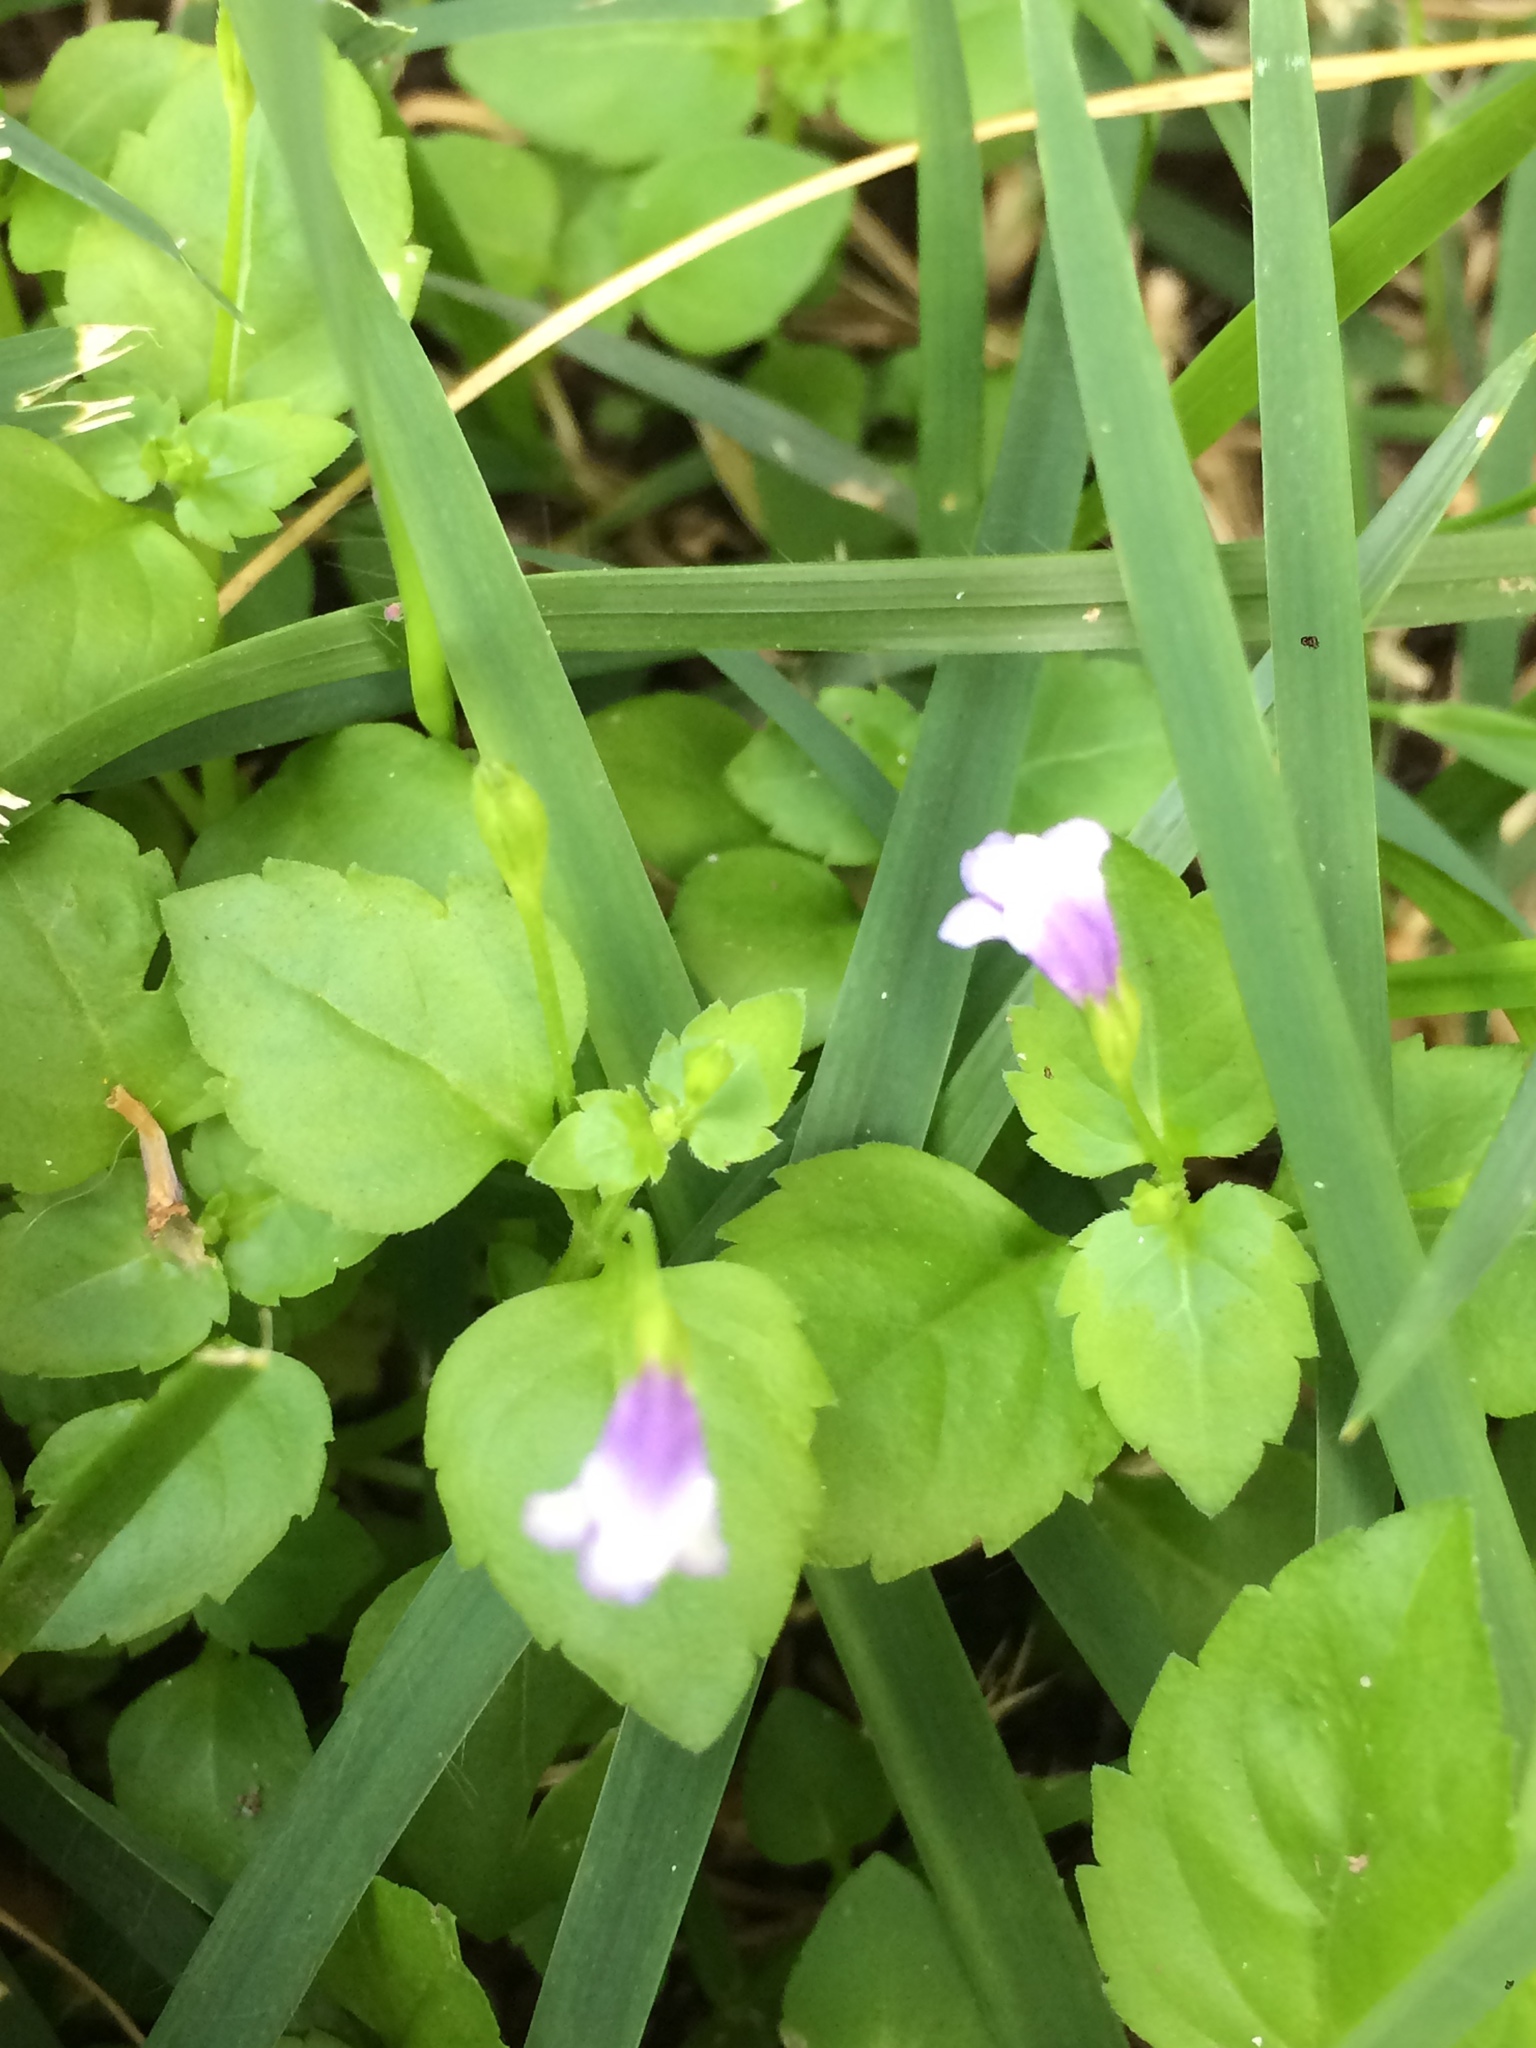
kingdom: Plantae
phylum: Tracheophyta
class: Magnoliopsida
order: Lamiales
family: Linderniaceae
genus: Torenia
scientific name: Torenia crustacea
